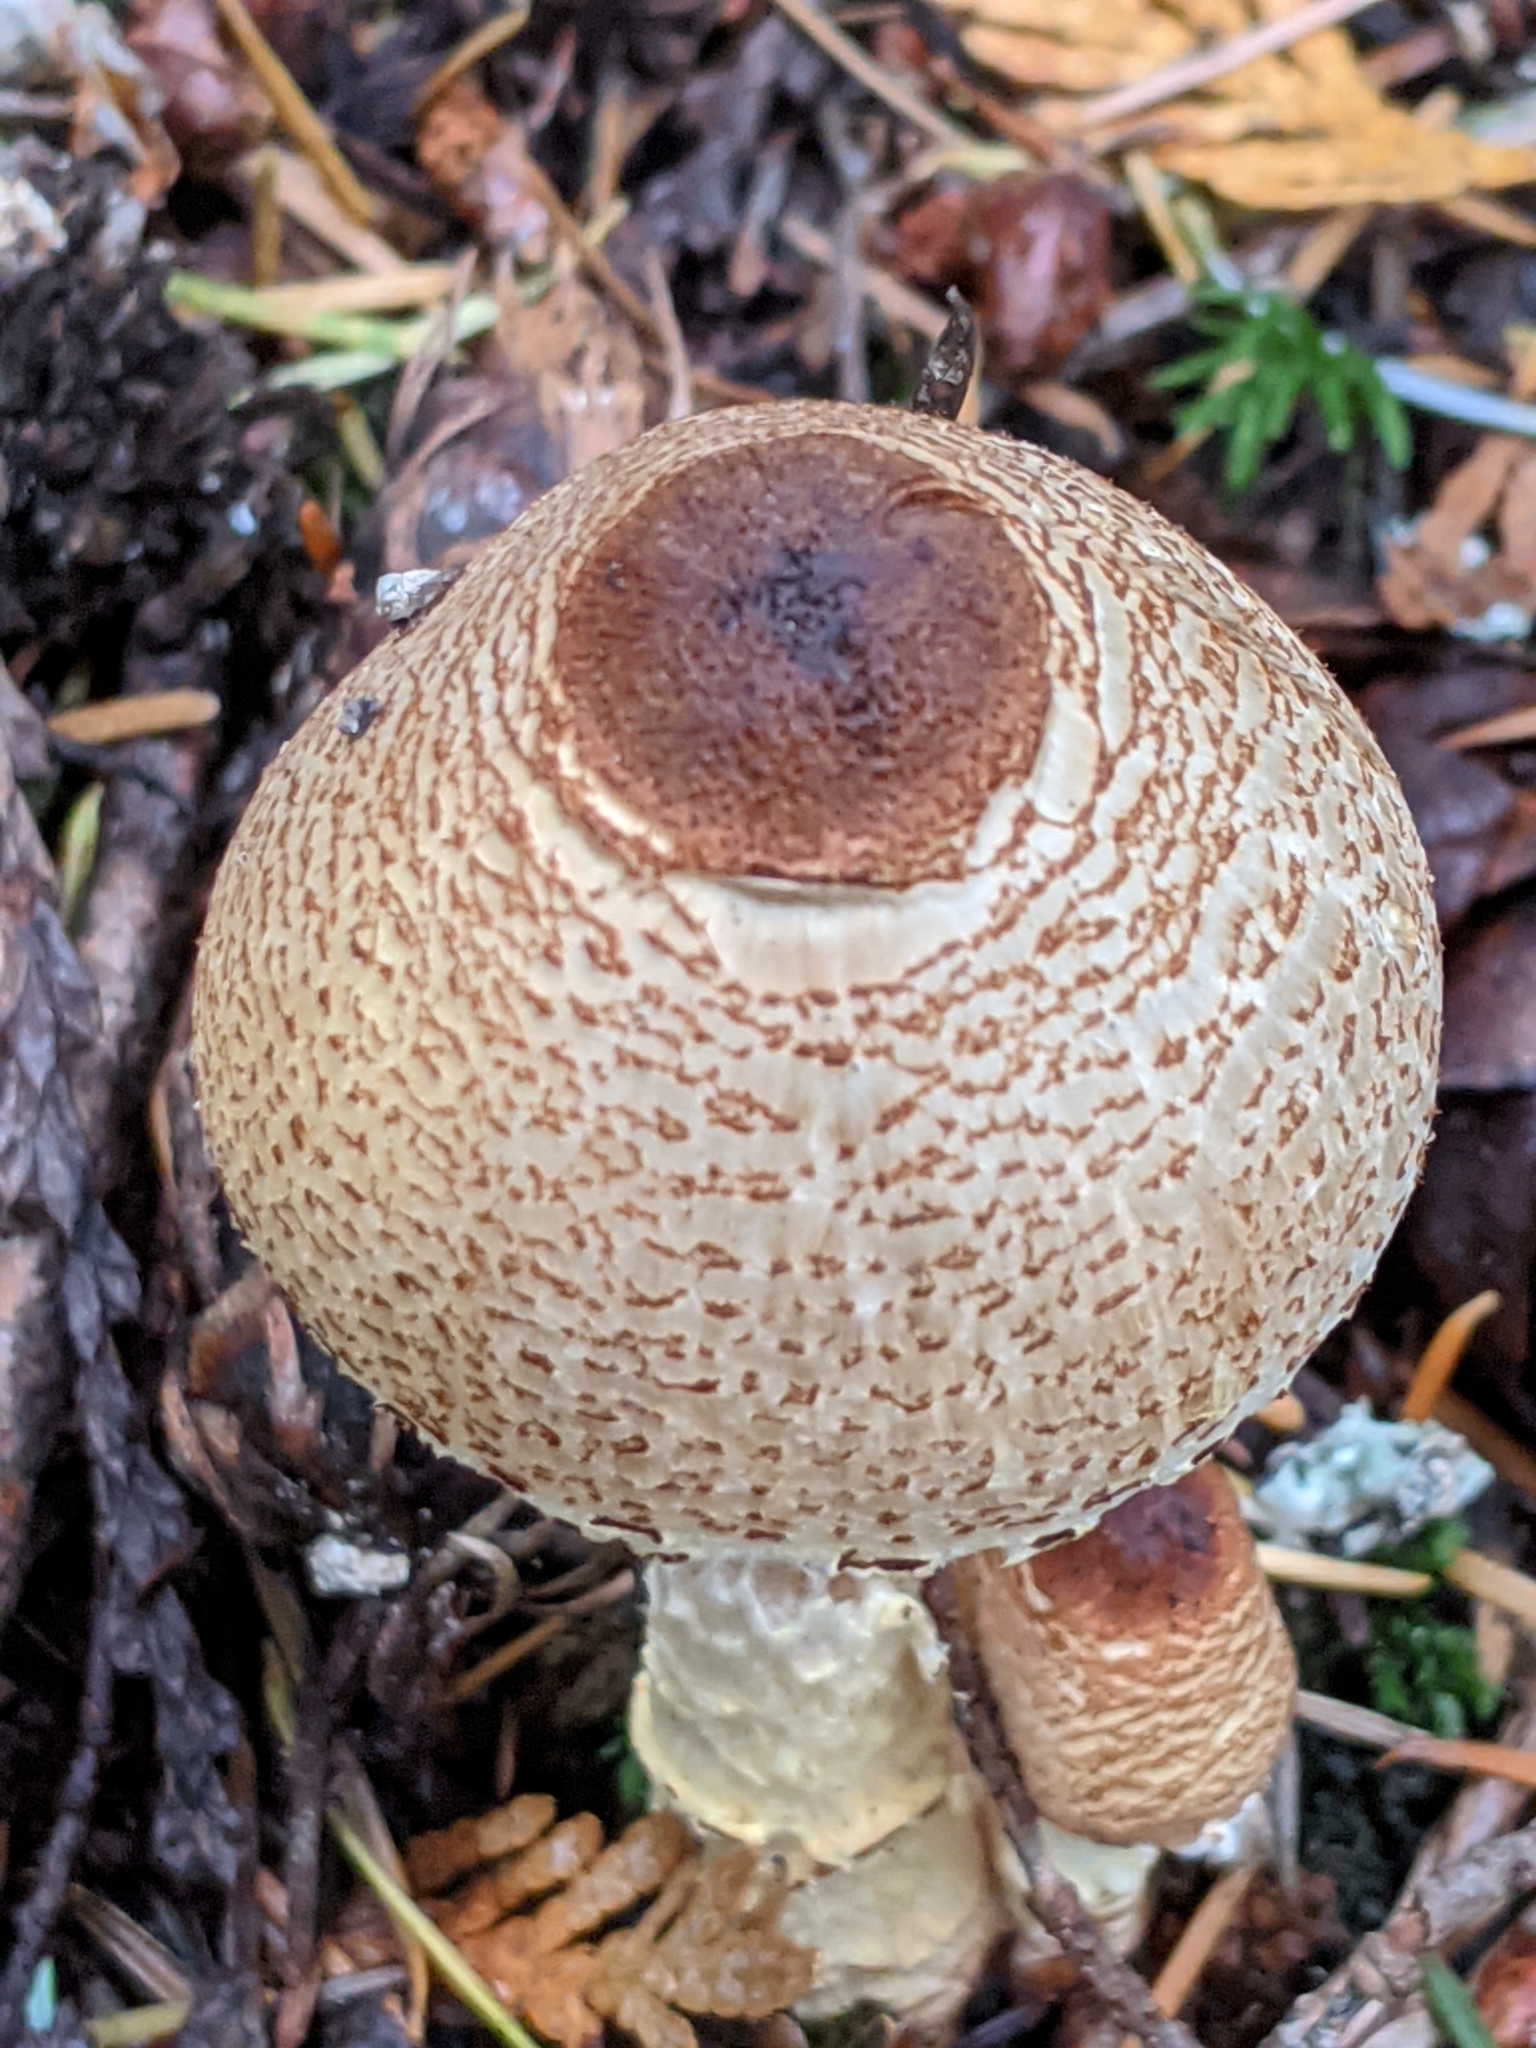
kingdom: Fungi
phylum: Basidiomycota
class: Agaricomycetes
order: Agaricales
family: Agaricaceae
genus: Lepiota
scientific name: Lepiota magnispora
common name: Yellowfoot dapperling
